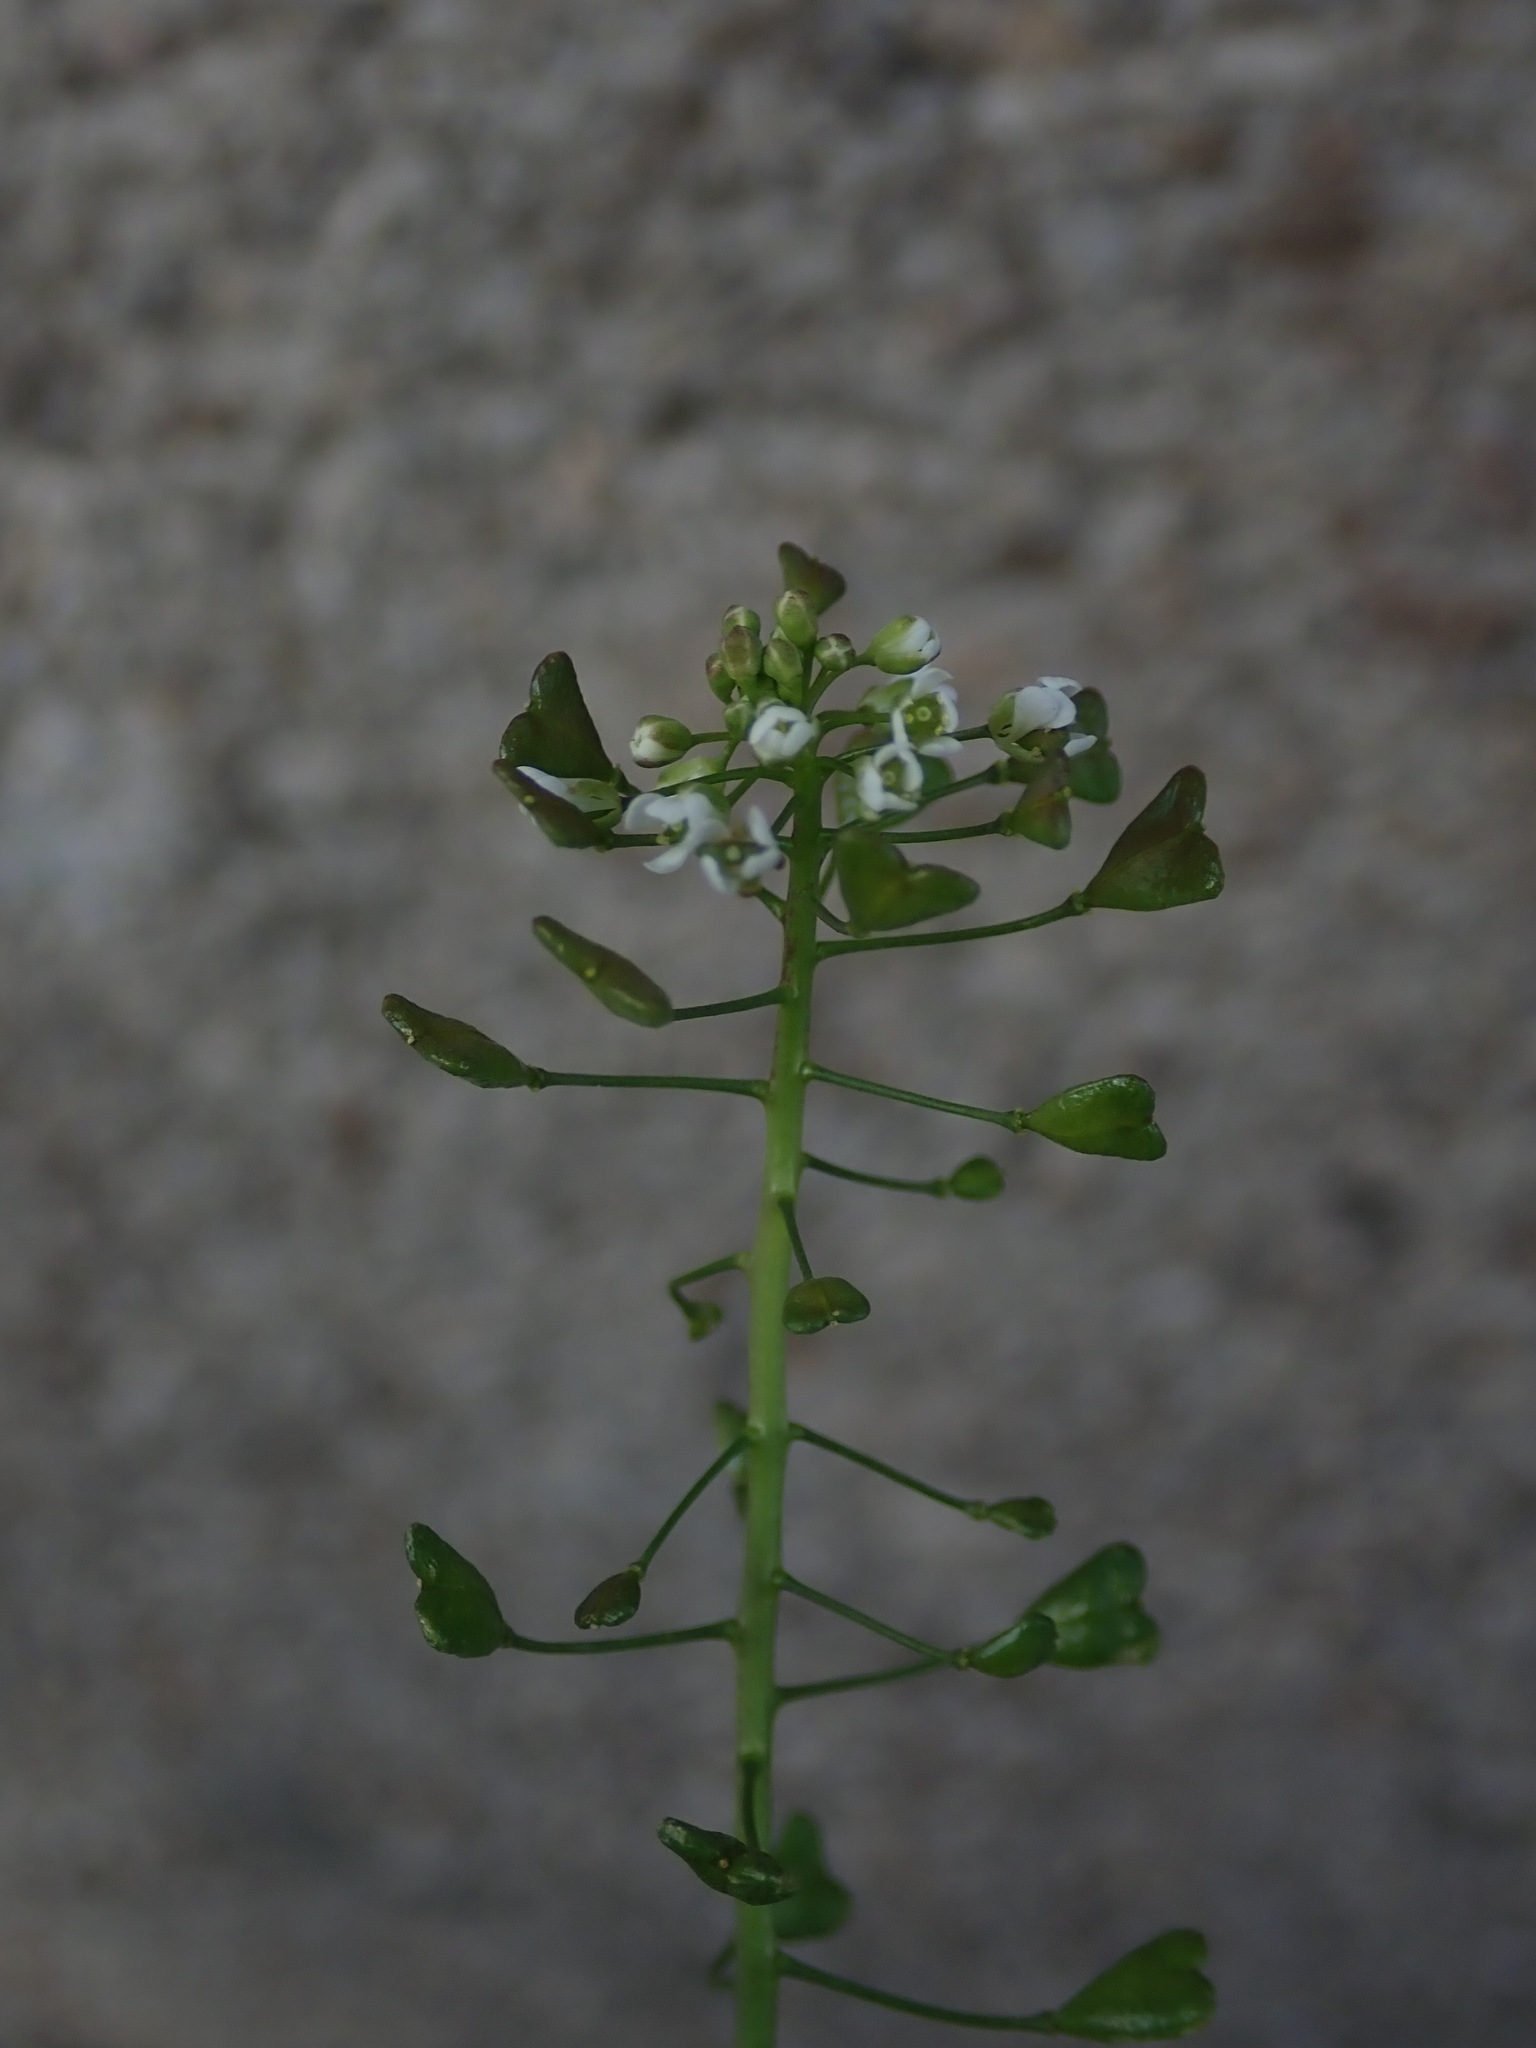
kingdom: Plantae
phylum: Tracheophyta
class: Magnoliopsida
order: Brassicales
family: Brassicaceae
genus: Capsella
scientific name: Capsella bursa-pastoris
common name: Shepherd's purse
